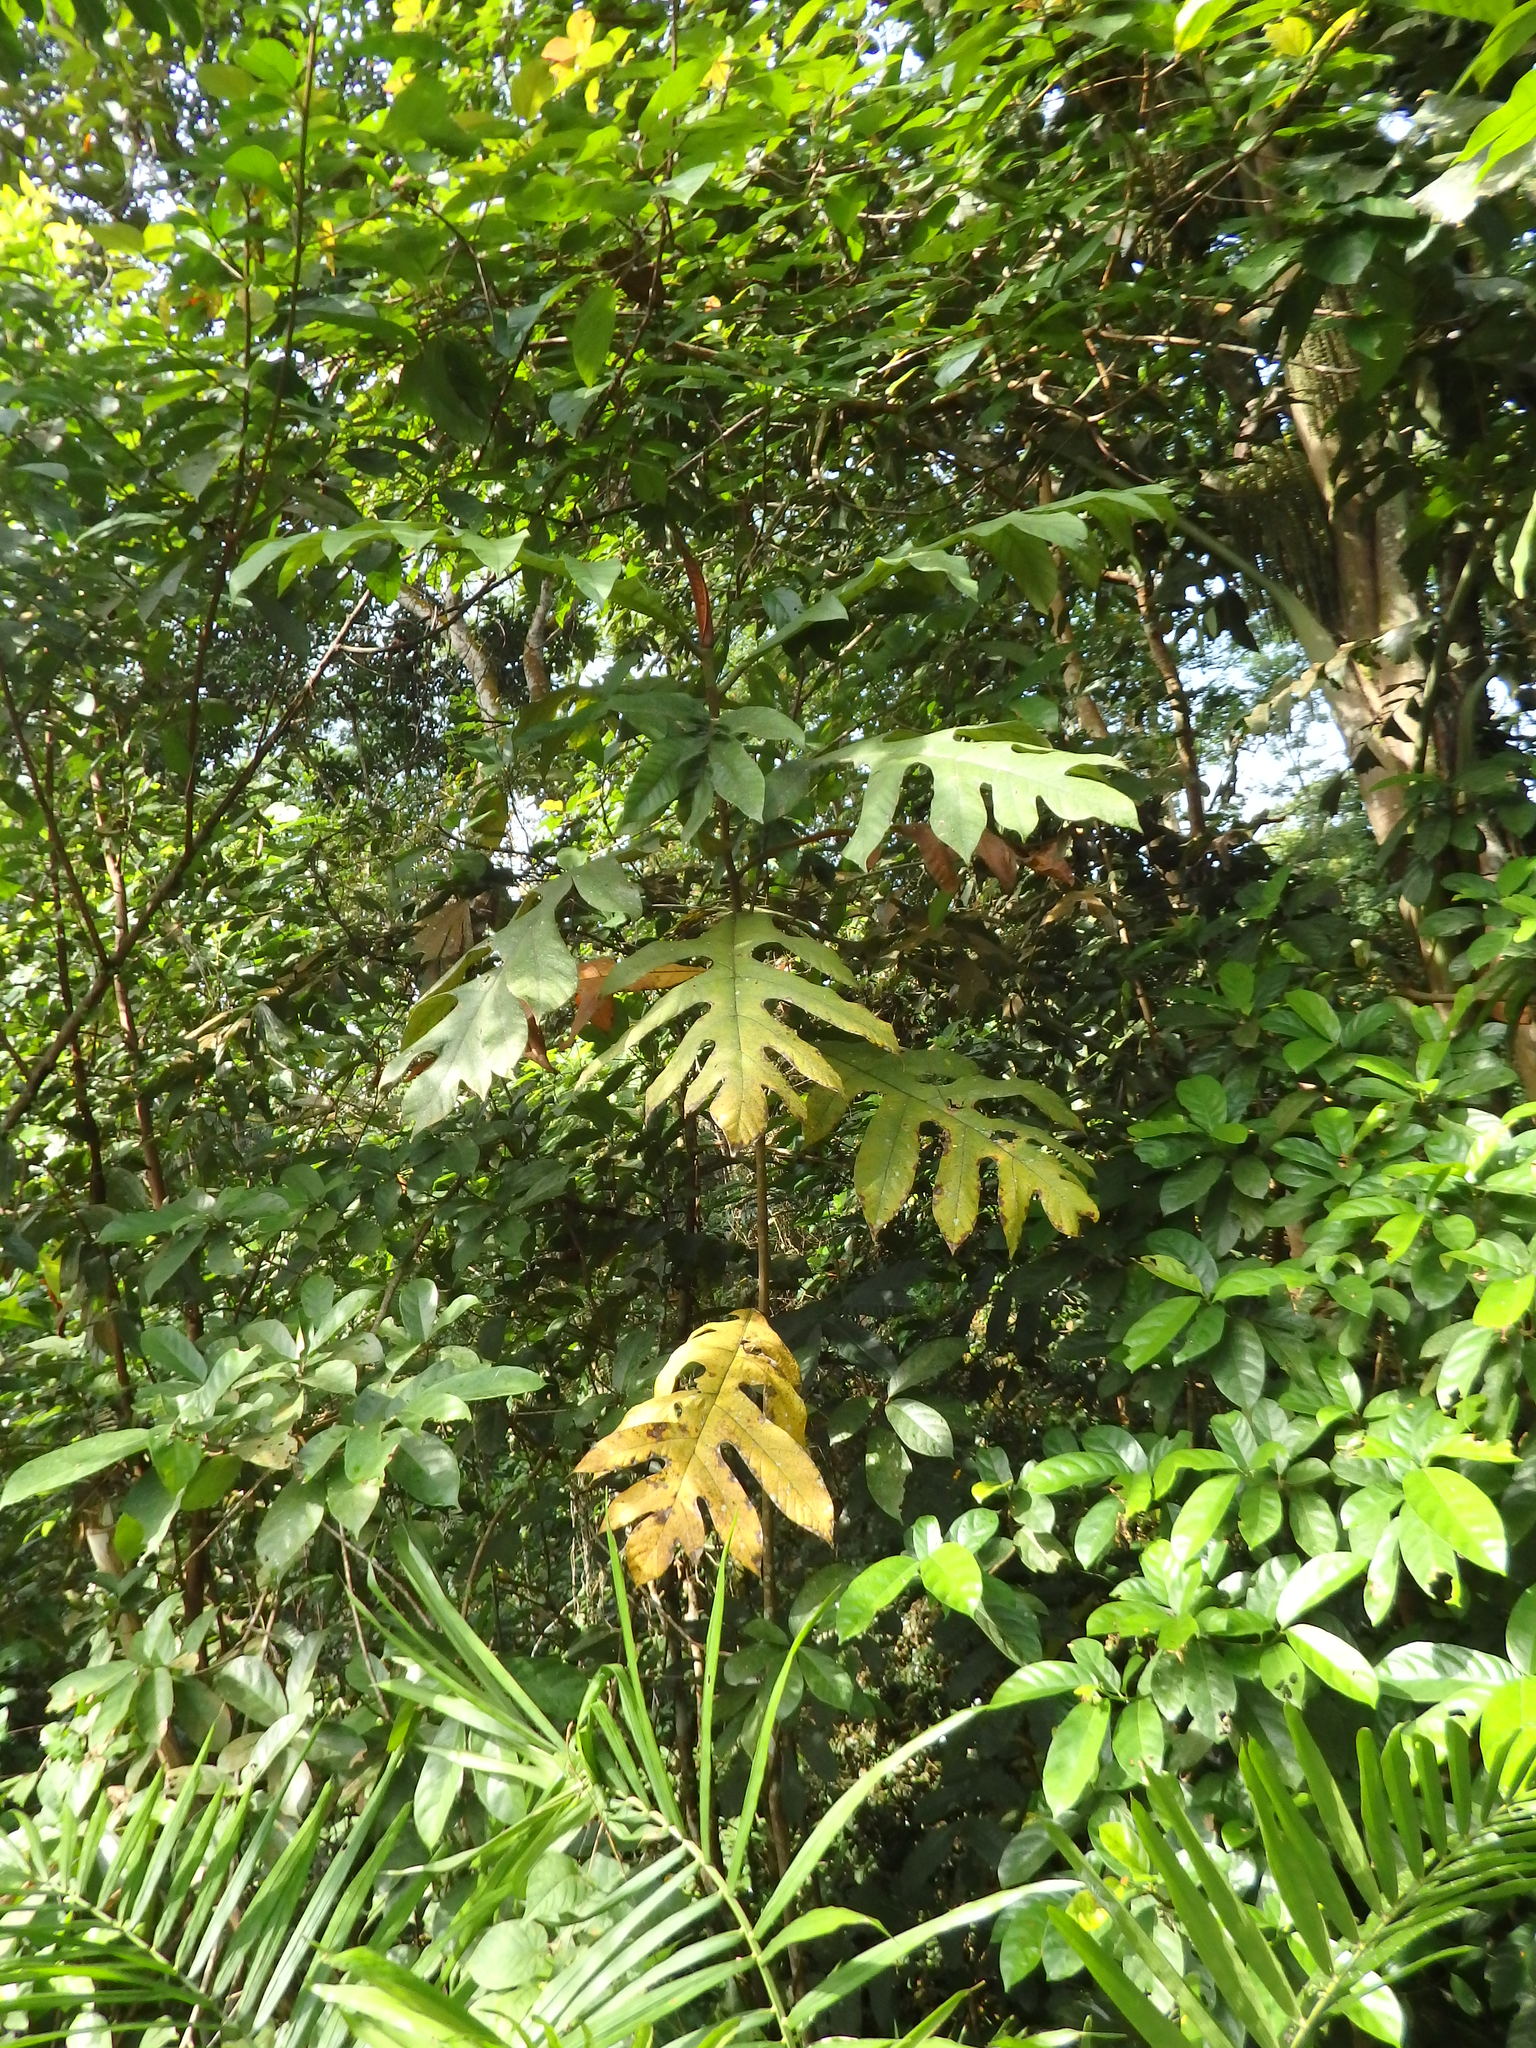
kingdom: Plantae
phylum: Tracheophyta
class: Magnoliopsida
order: Rosales
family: Moraceae
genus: Artocarpus
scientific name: Artocarpus elasticus
